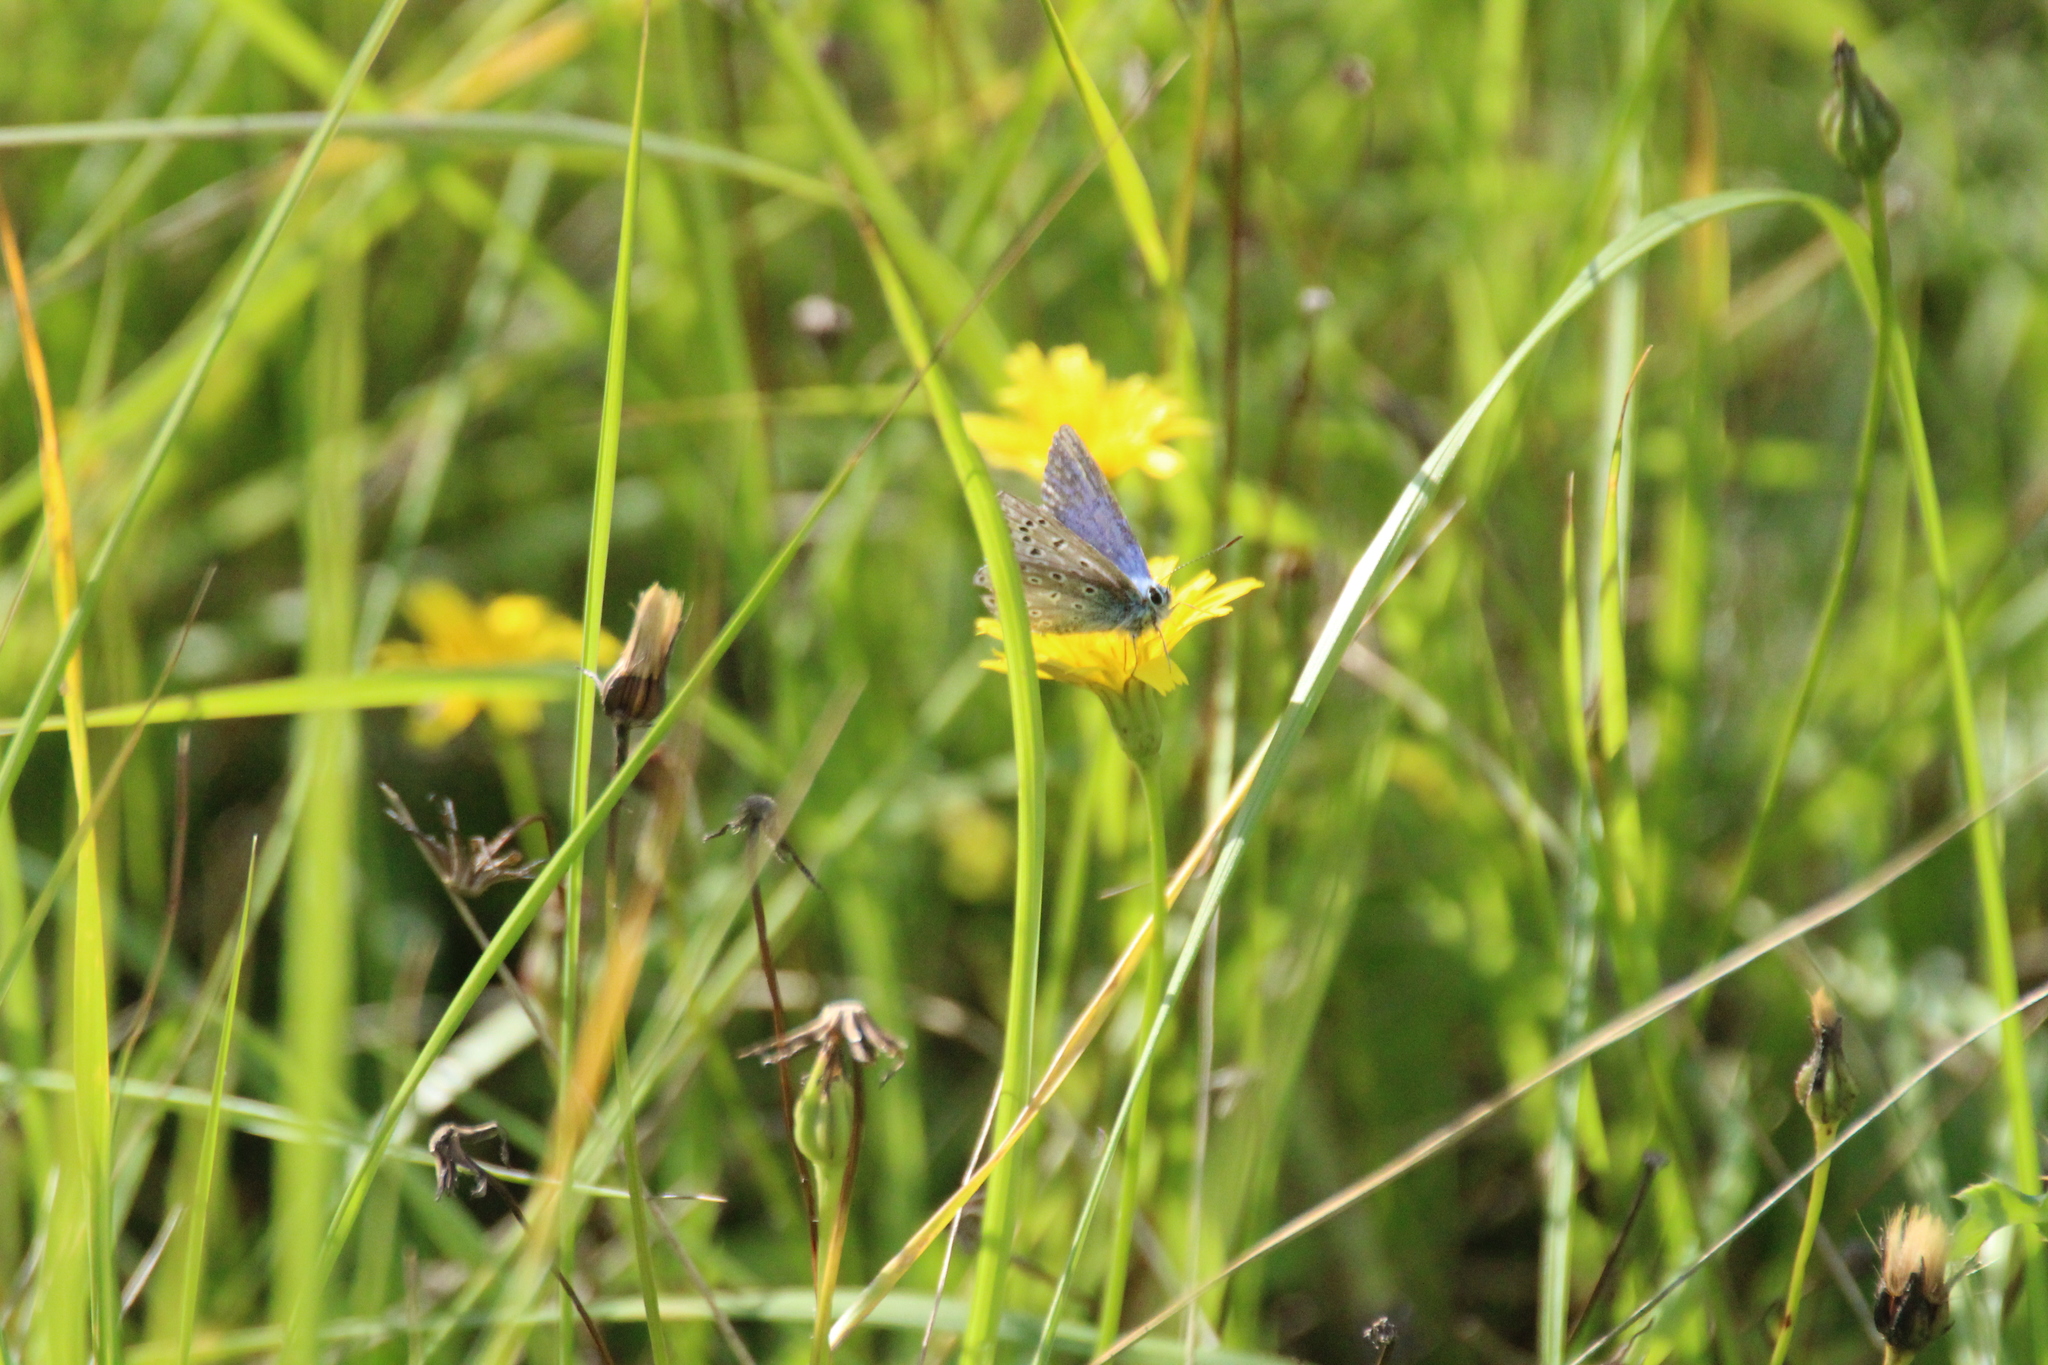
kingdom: Animalia
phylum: Arthropoda
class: Insecta
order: Lepidoptera
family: Lycaenidae
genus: Polyommatus
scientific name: Polyommatus icarus
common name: Common blue
